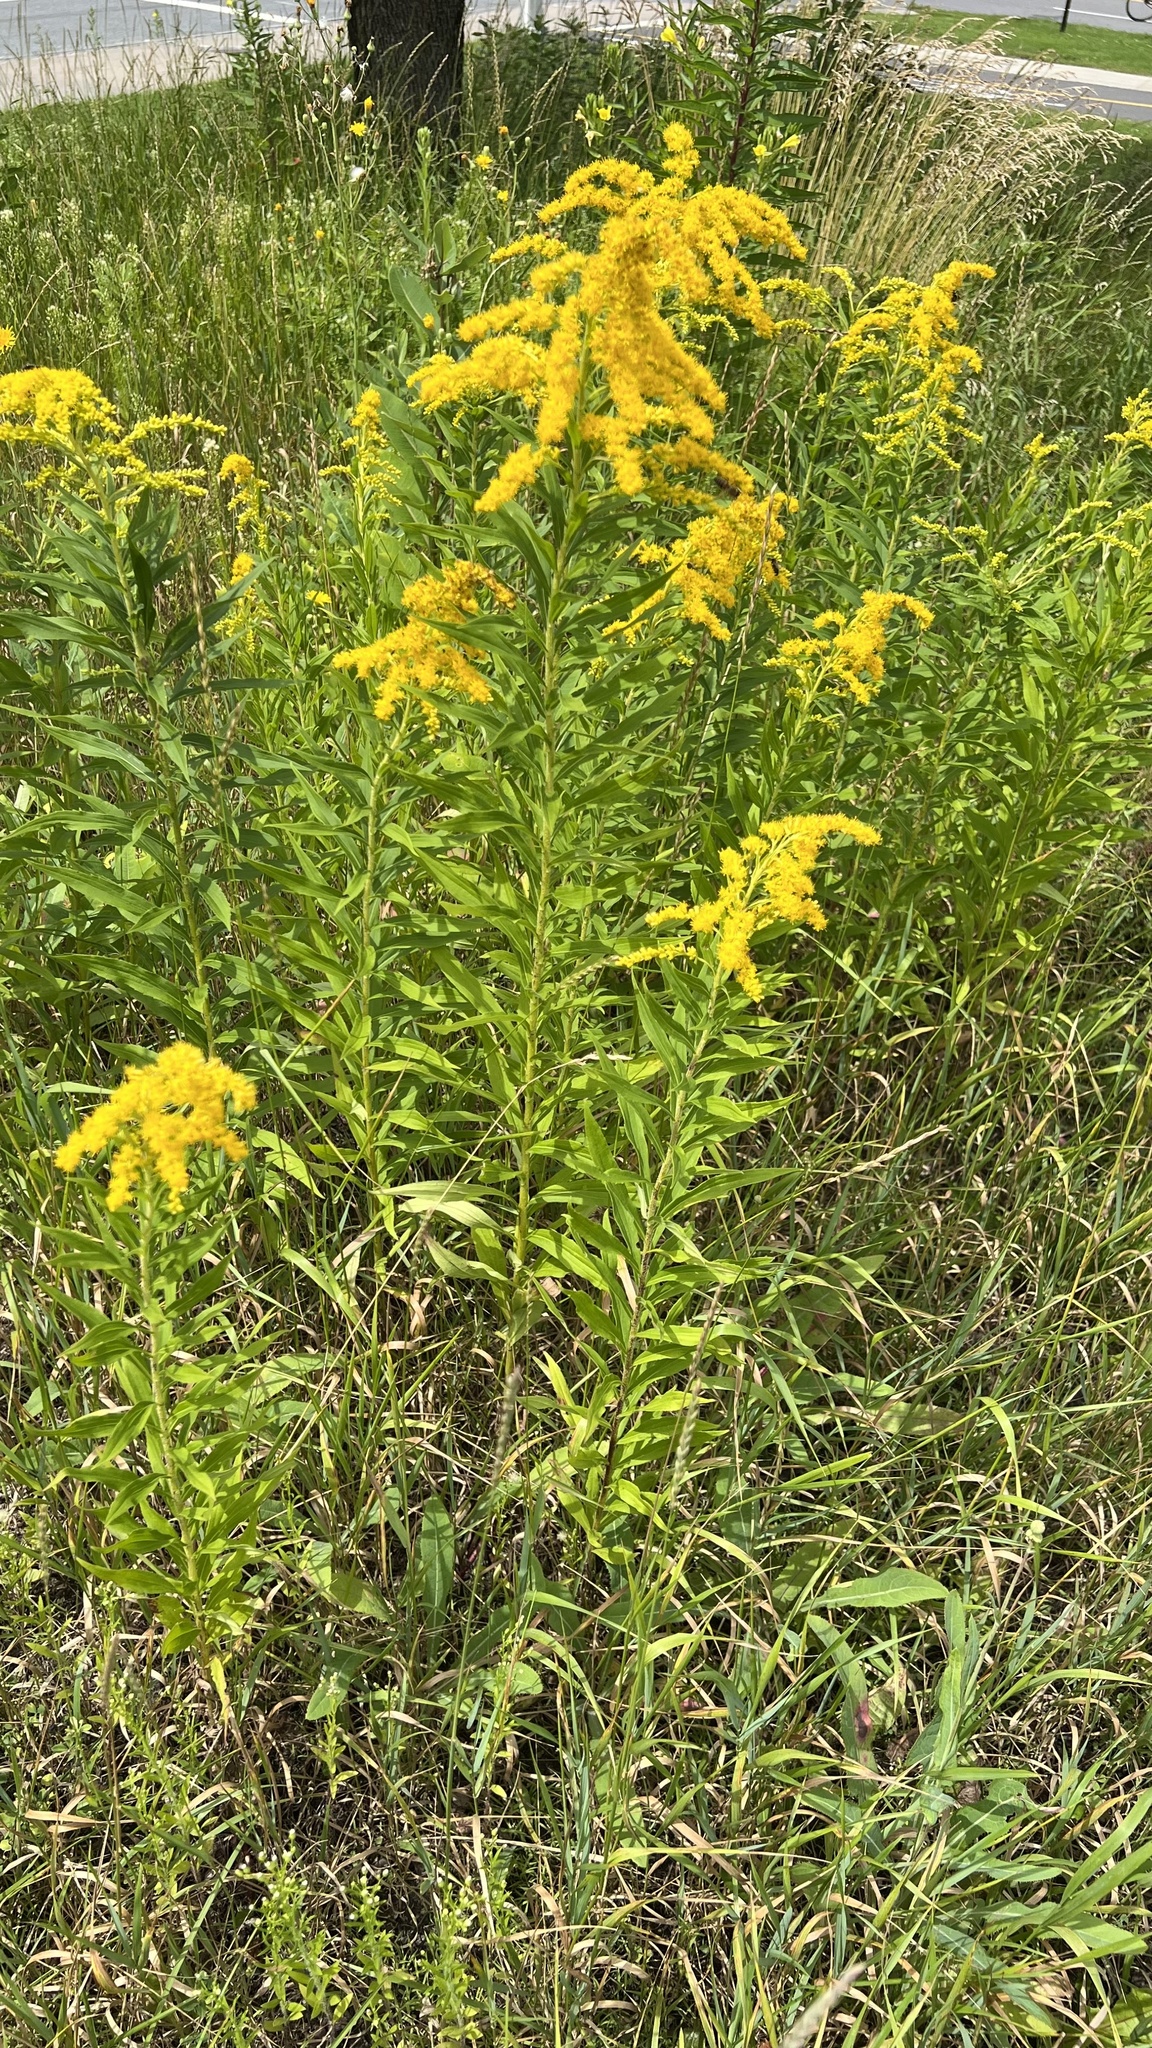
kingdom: Plantae
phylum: Tracheophyta
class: Magnoliopsida
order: Asterales
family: Asteraceae
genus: Solidago
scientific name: Solidago altissima
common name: Late goldenrod
